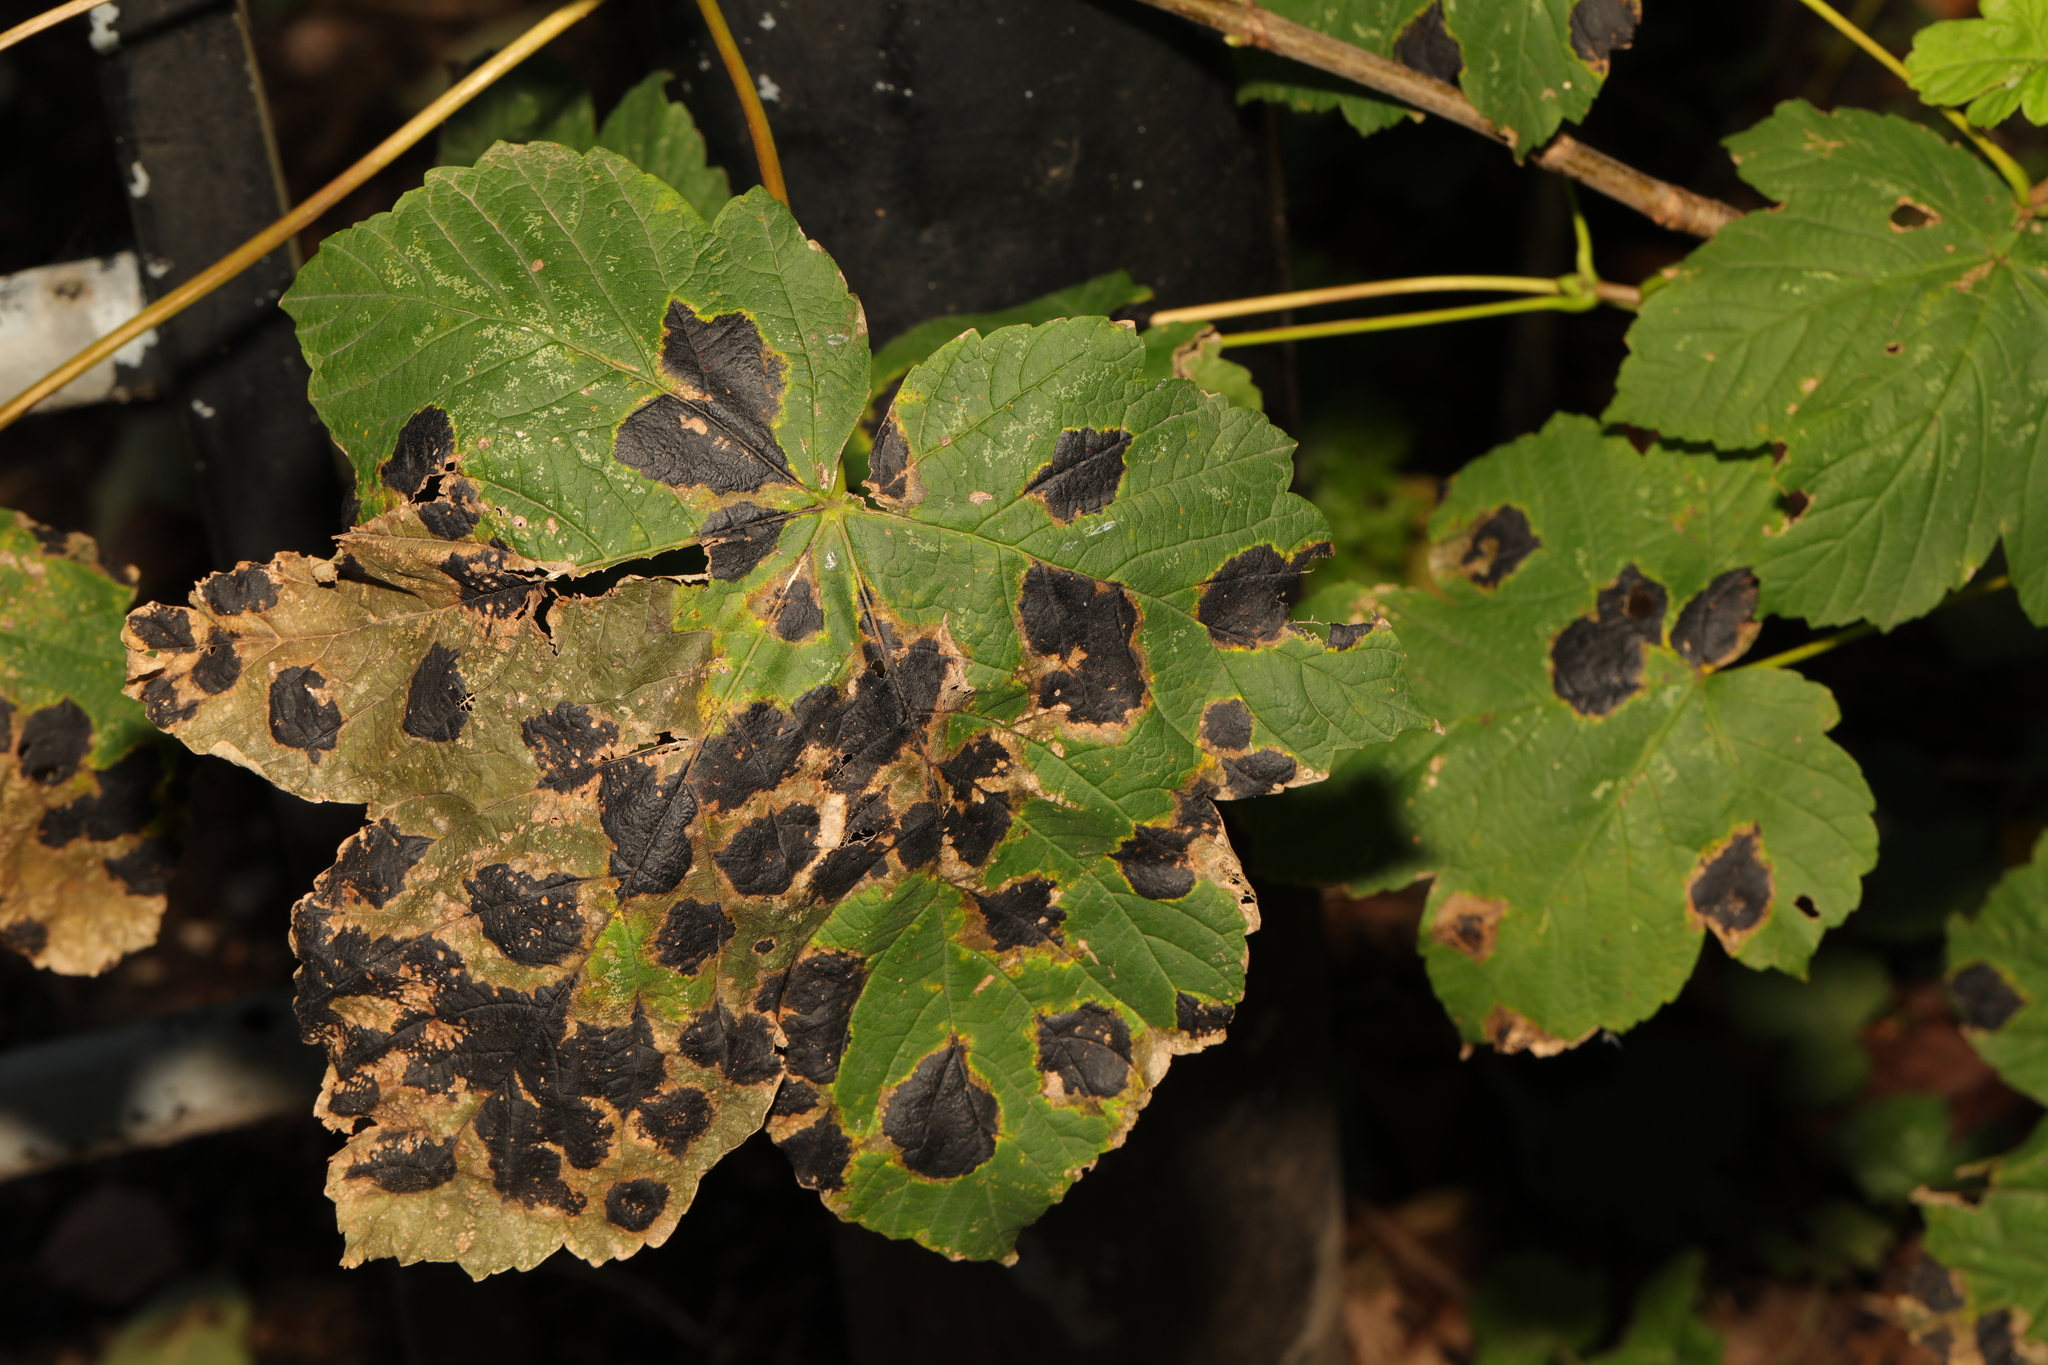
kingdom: Plantae
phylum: Tracheophyta
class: Magnoliopsida
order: Sapindales
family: Sapindaceae
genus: Acer
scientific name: Acer pseudoplatanus
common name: Sycamore
